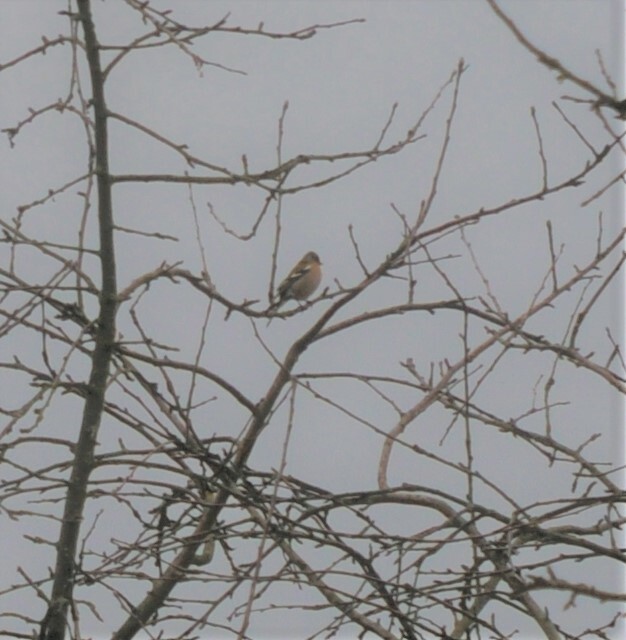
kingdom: Animalia
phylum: Chordata
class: Aves
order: Passeriformes
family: Fringillidae
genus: Fringilla
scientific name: Fringilla coelebs
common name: Common chaffinch
